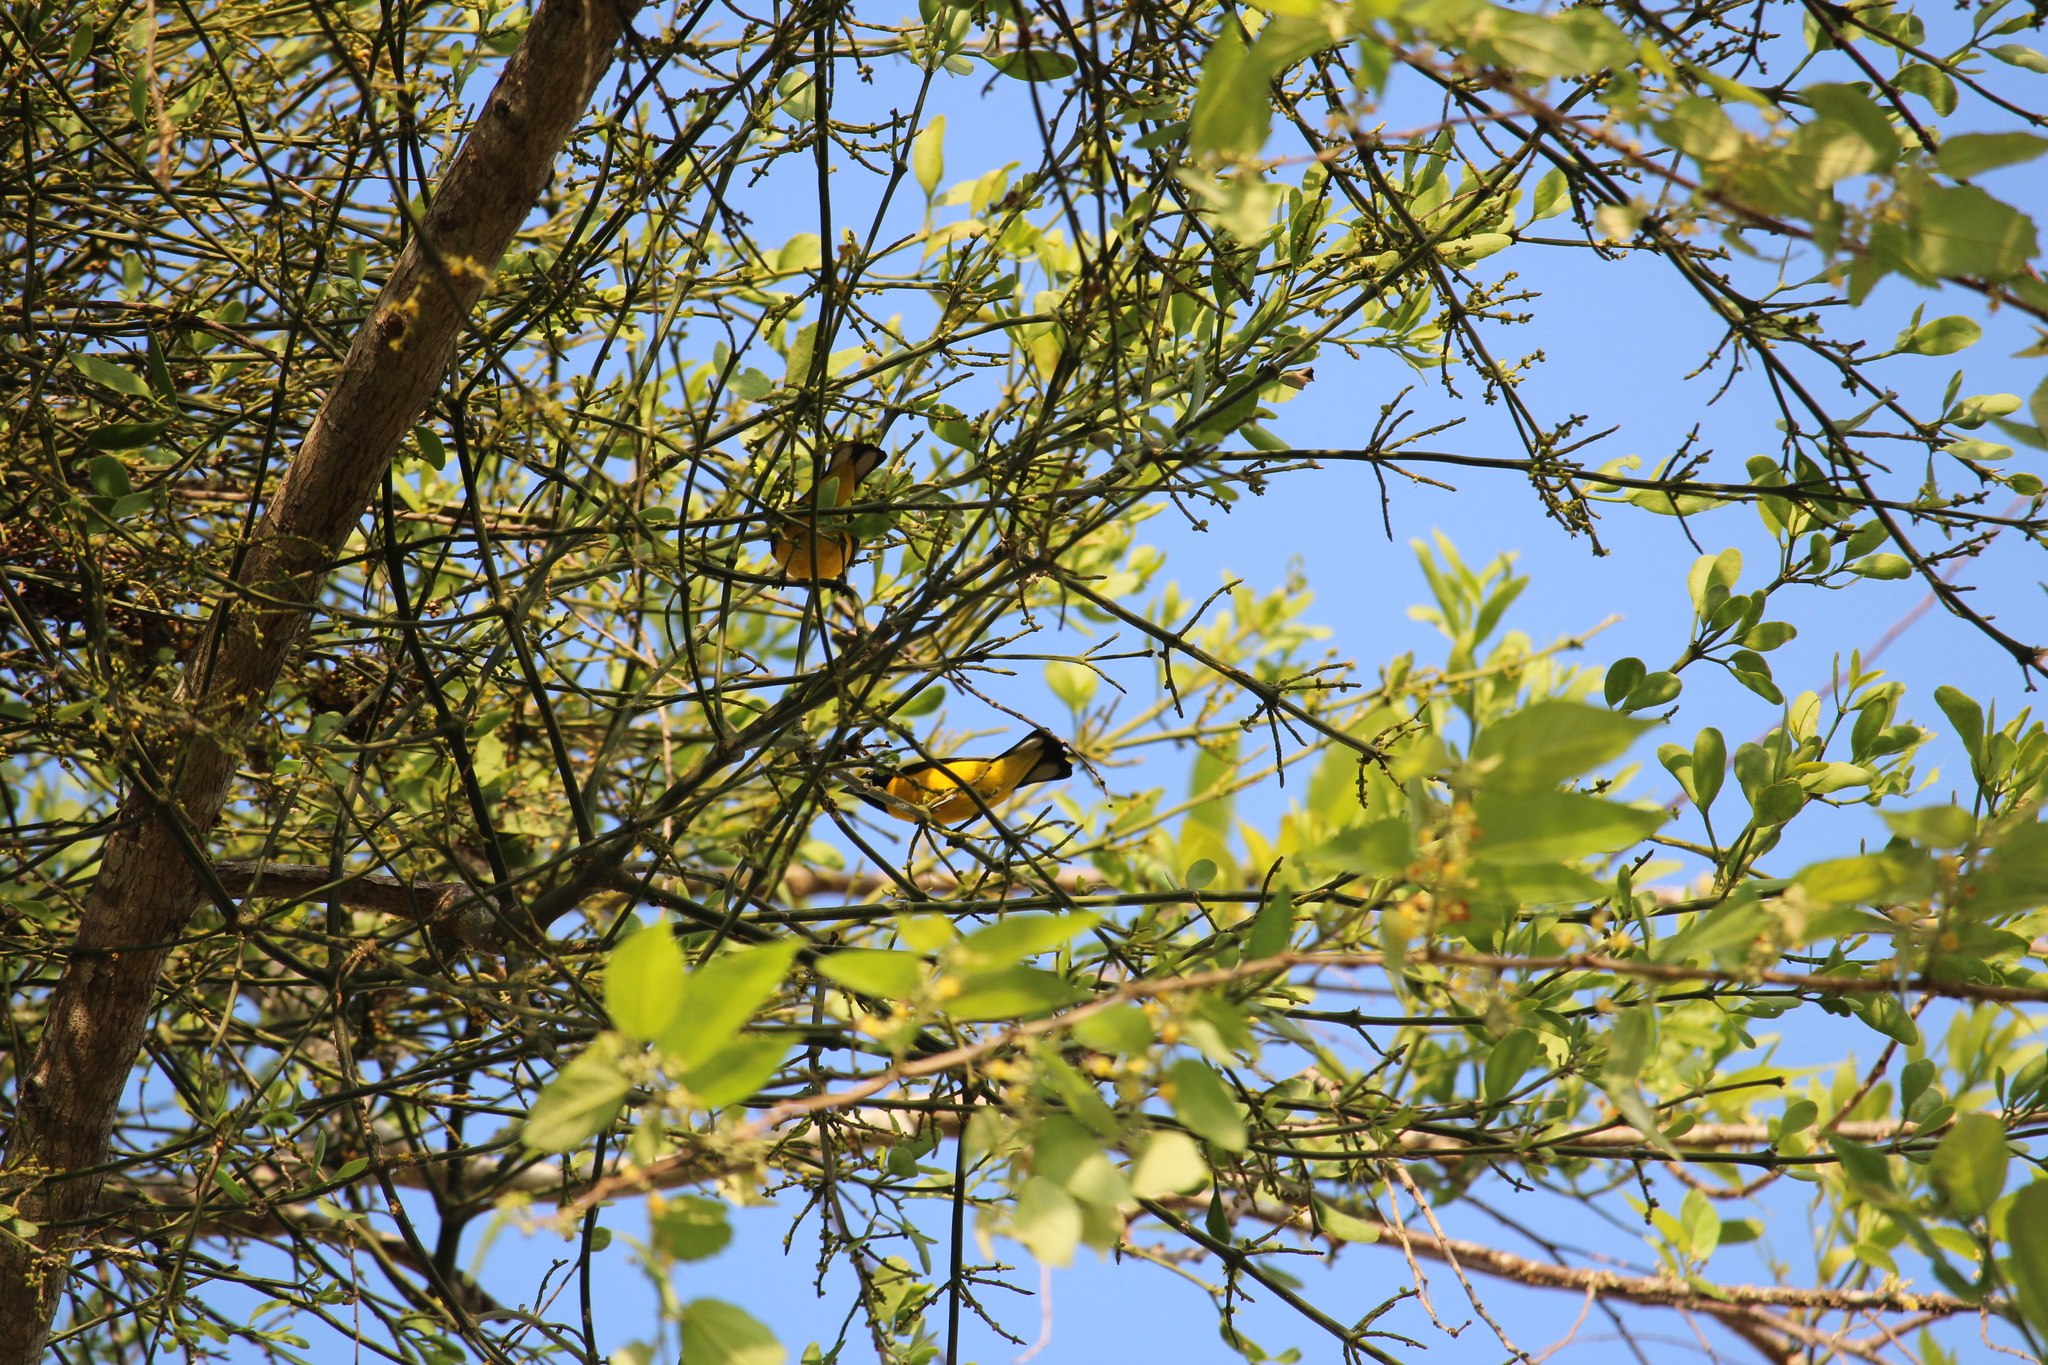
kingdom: Animalia
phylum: Chordata
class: Aves
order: Passeriformes
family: Fringillidae
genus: Euphonia
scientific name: Euphonia affinis
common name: Scrub euphonia
